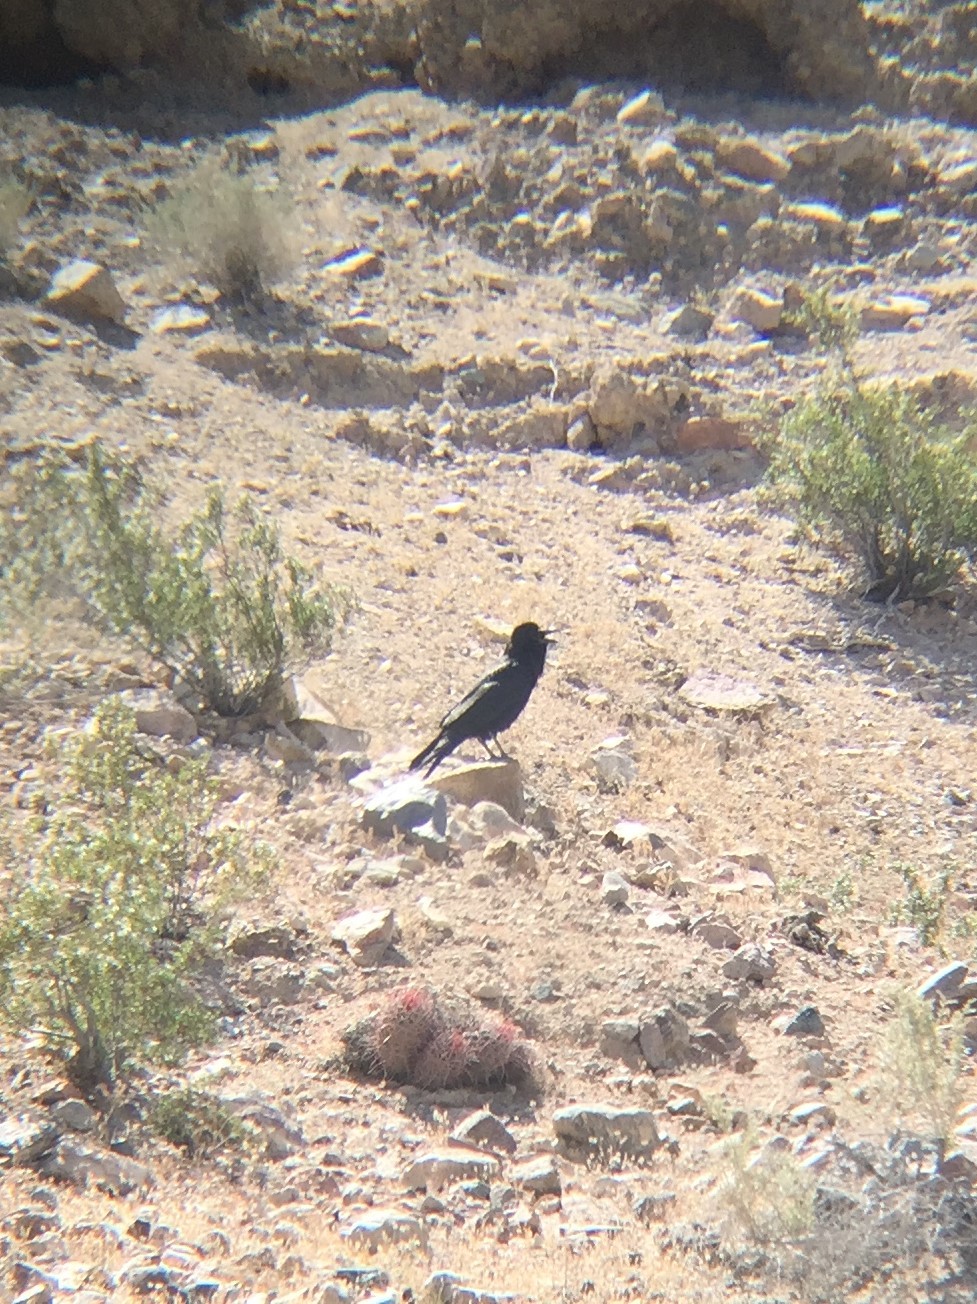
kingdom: Animalia
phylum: Chordata
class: Aves
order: Passeriformes
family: Corvidae
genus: Corvus
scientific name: Corvus corax
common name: Common raven
